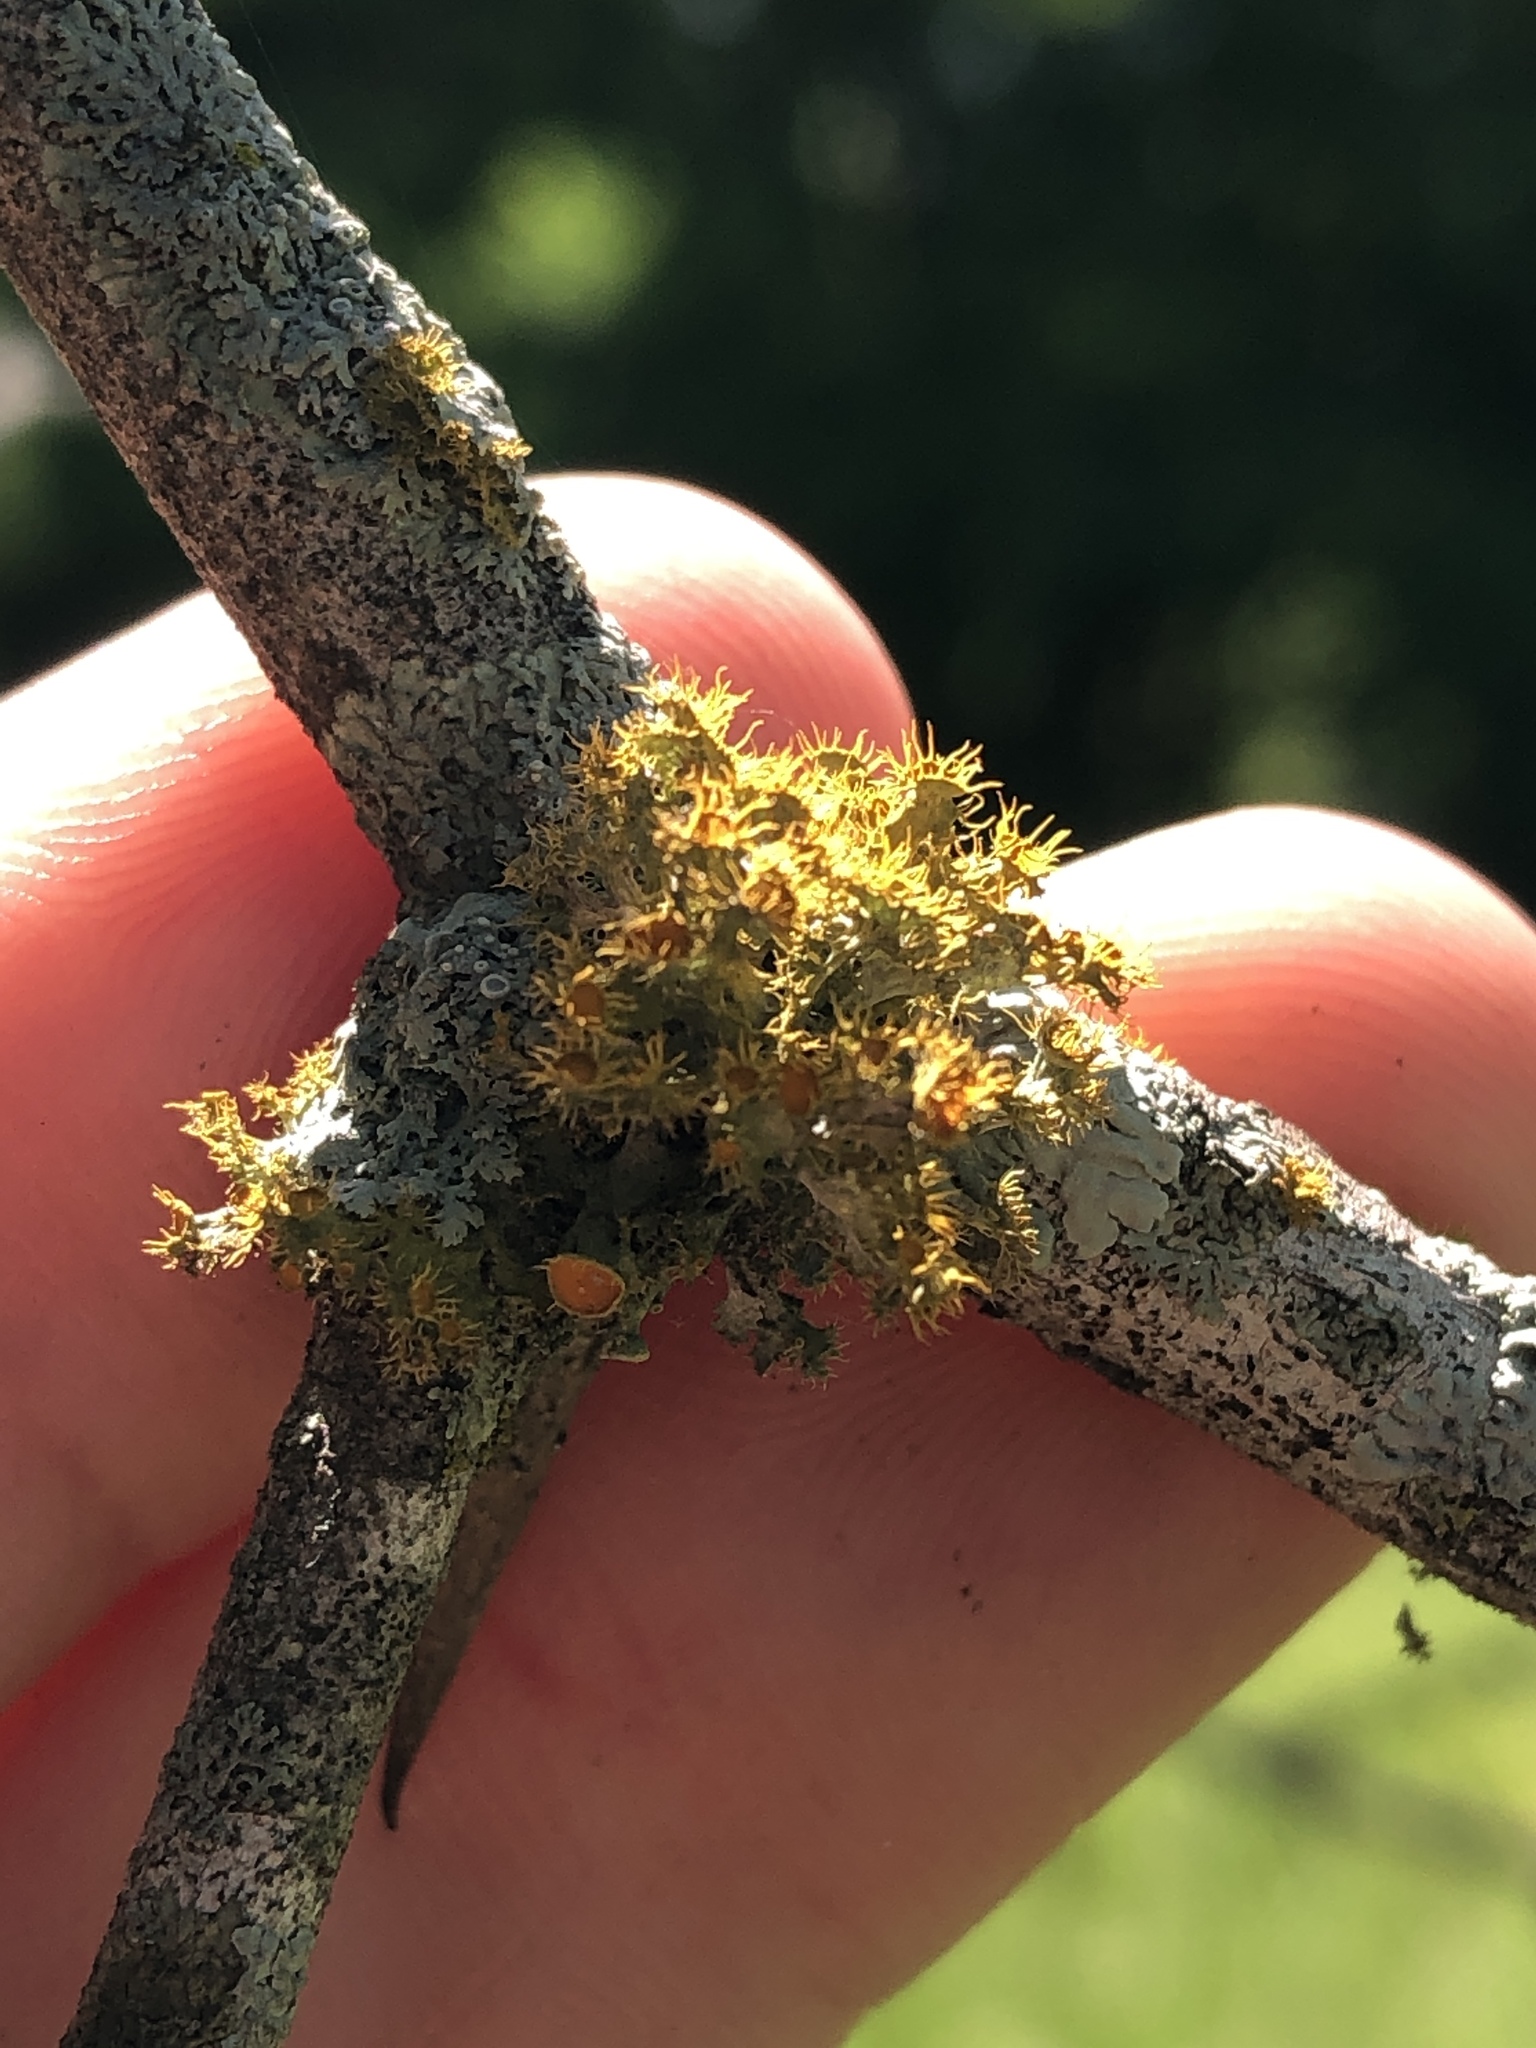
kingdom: Fungi
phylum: Ascomycota
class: Lecanoromycetes
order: Teloschistales
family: Teloschistaceae
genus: Niorma
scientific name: Niorma chrysophthalma
